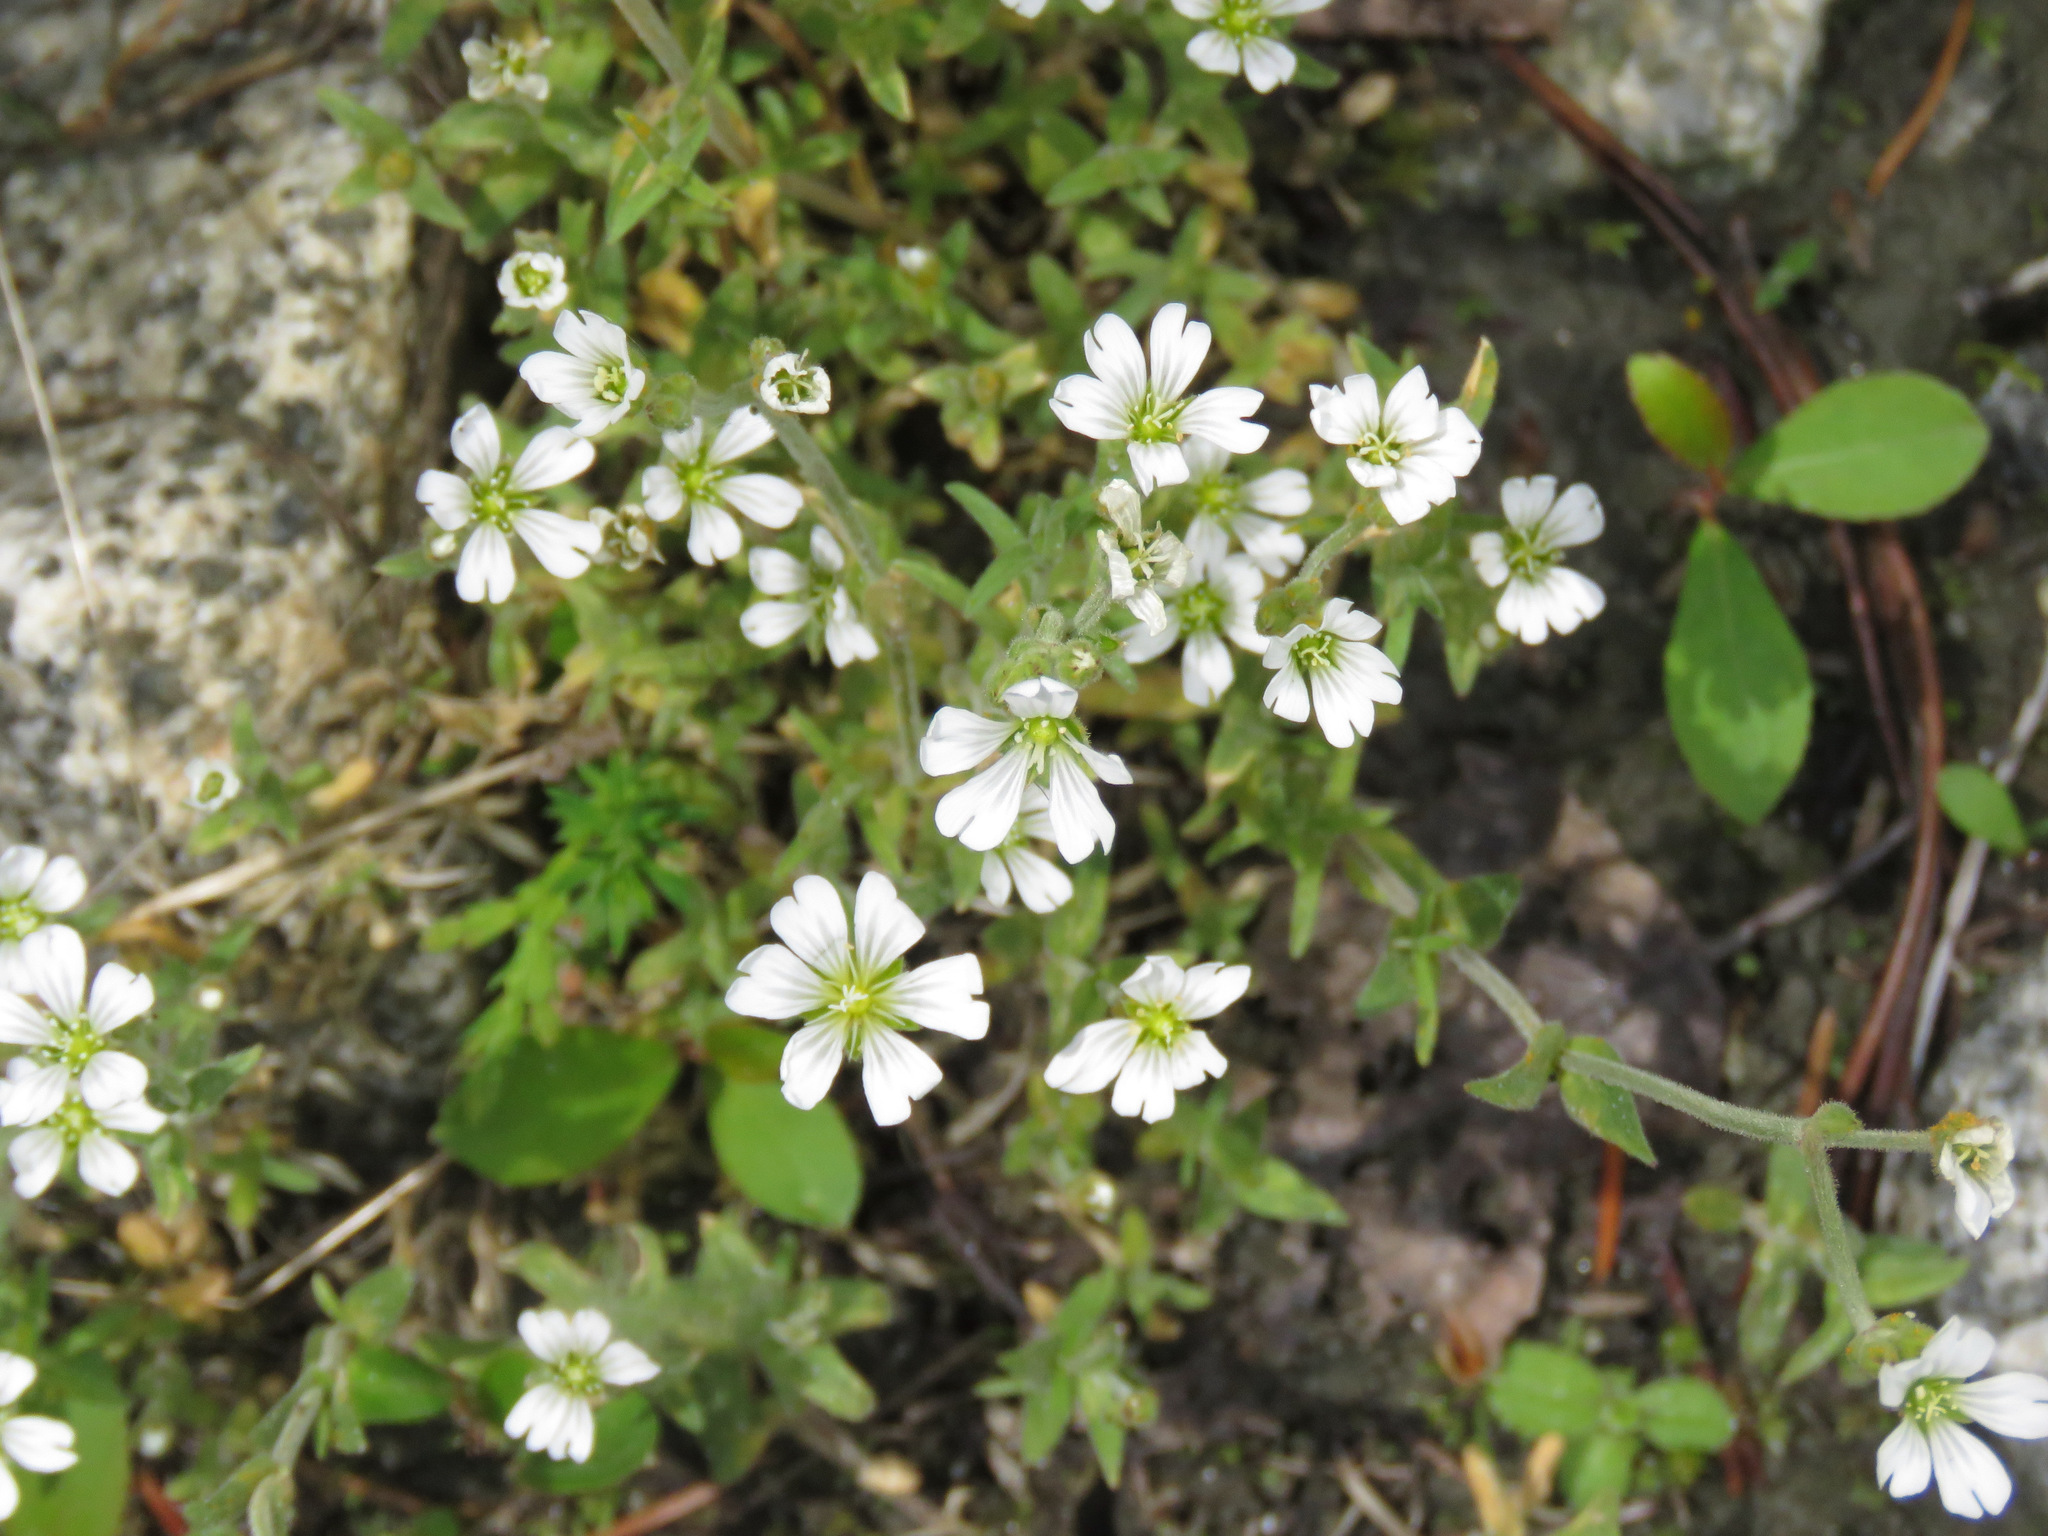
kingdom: Plantae
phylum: Tracheophyta
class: Magnoliopsida
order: Caryophyllales
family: Caryophyllaceae
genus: Cerastium
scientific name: Cerastium arvense
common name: Field mouse-ear
